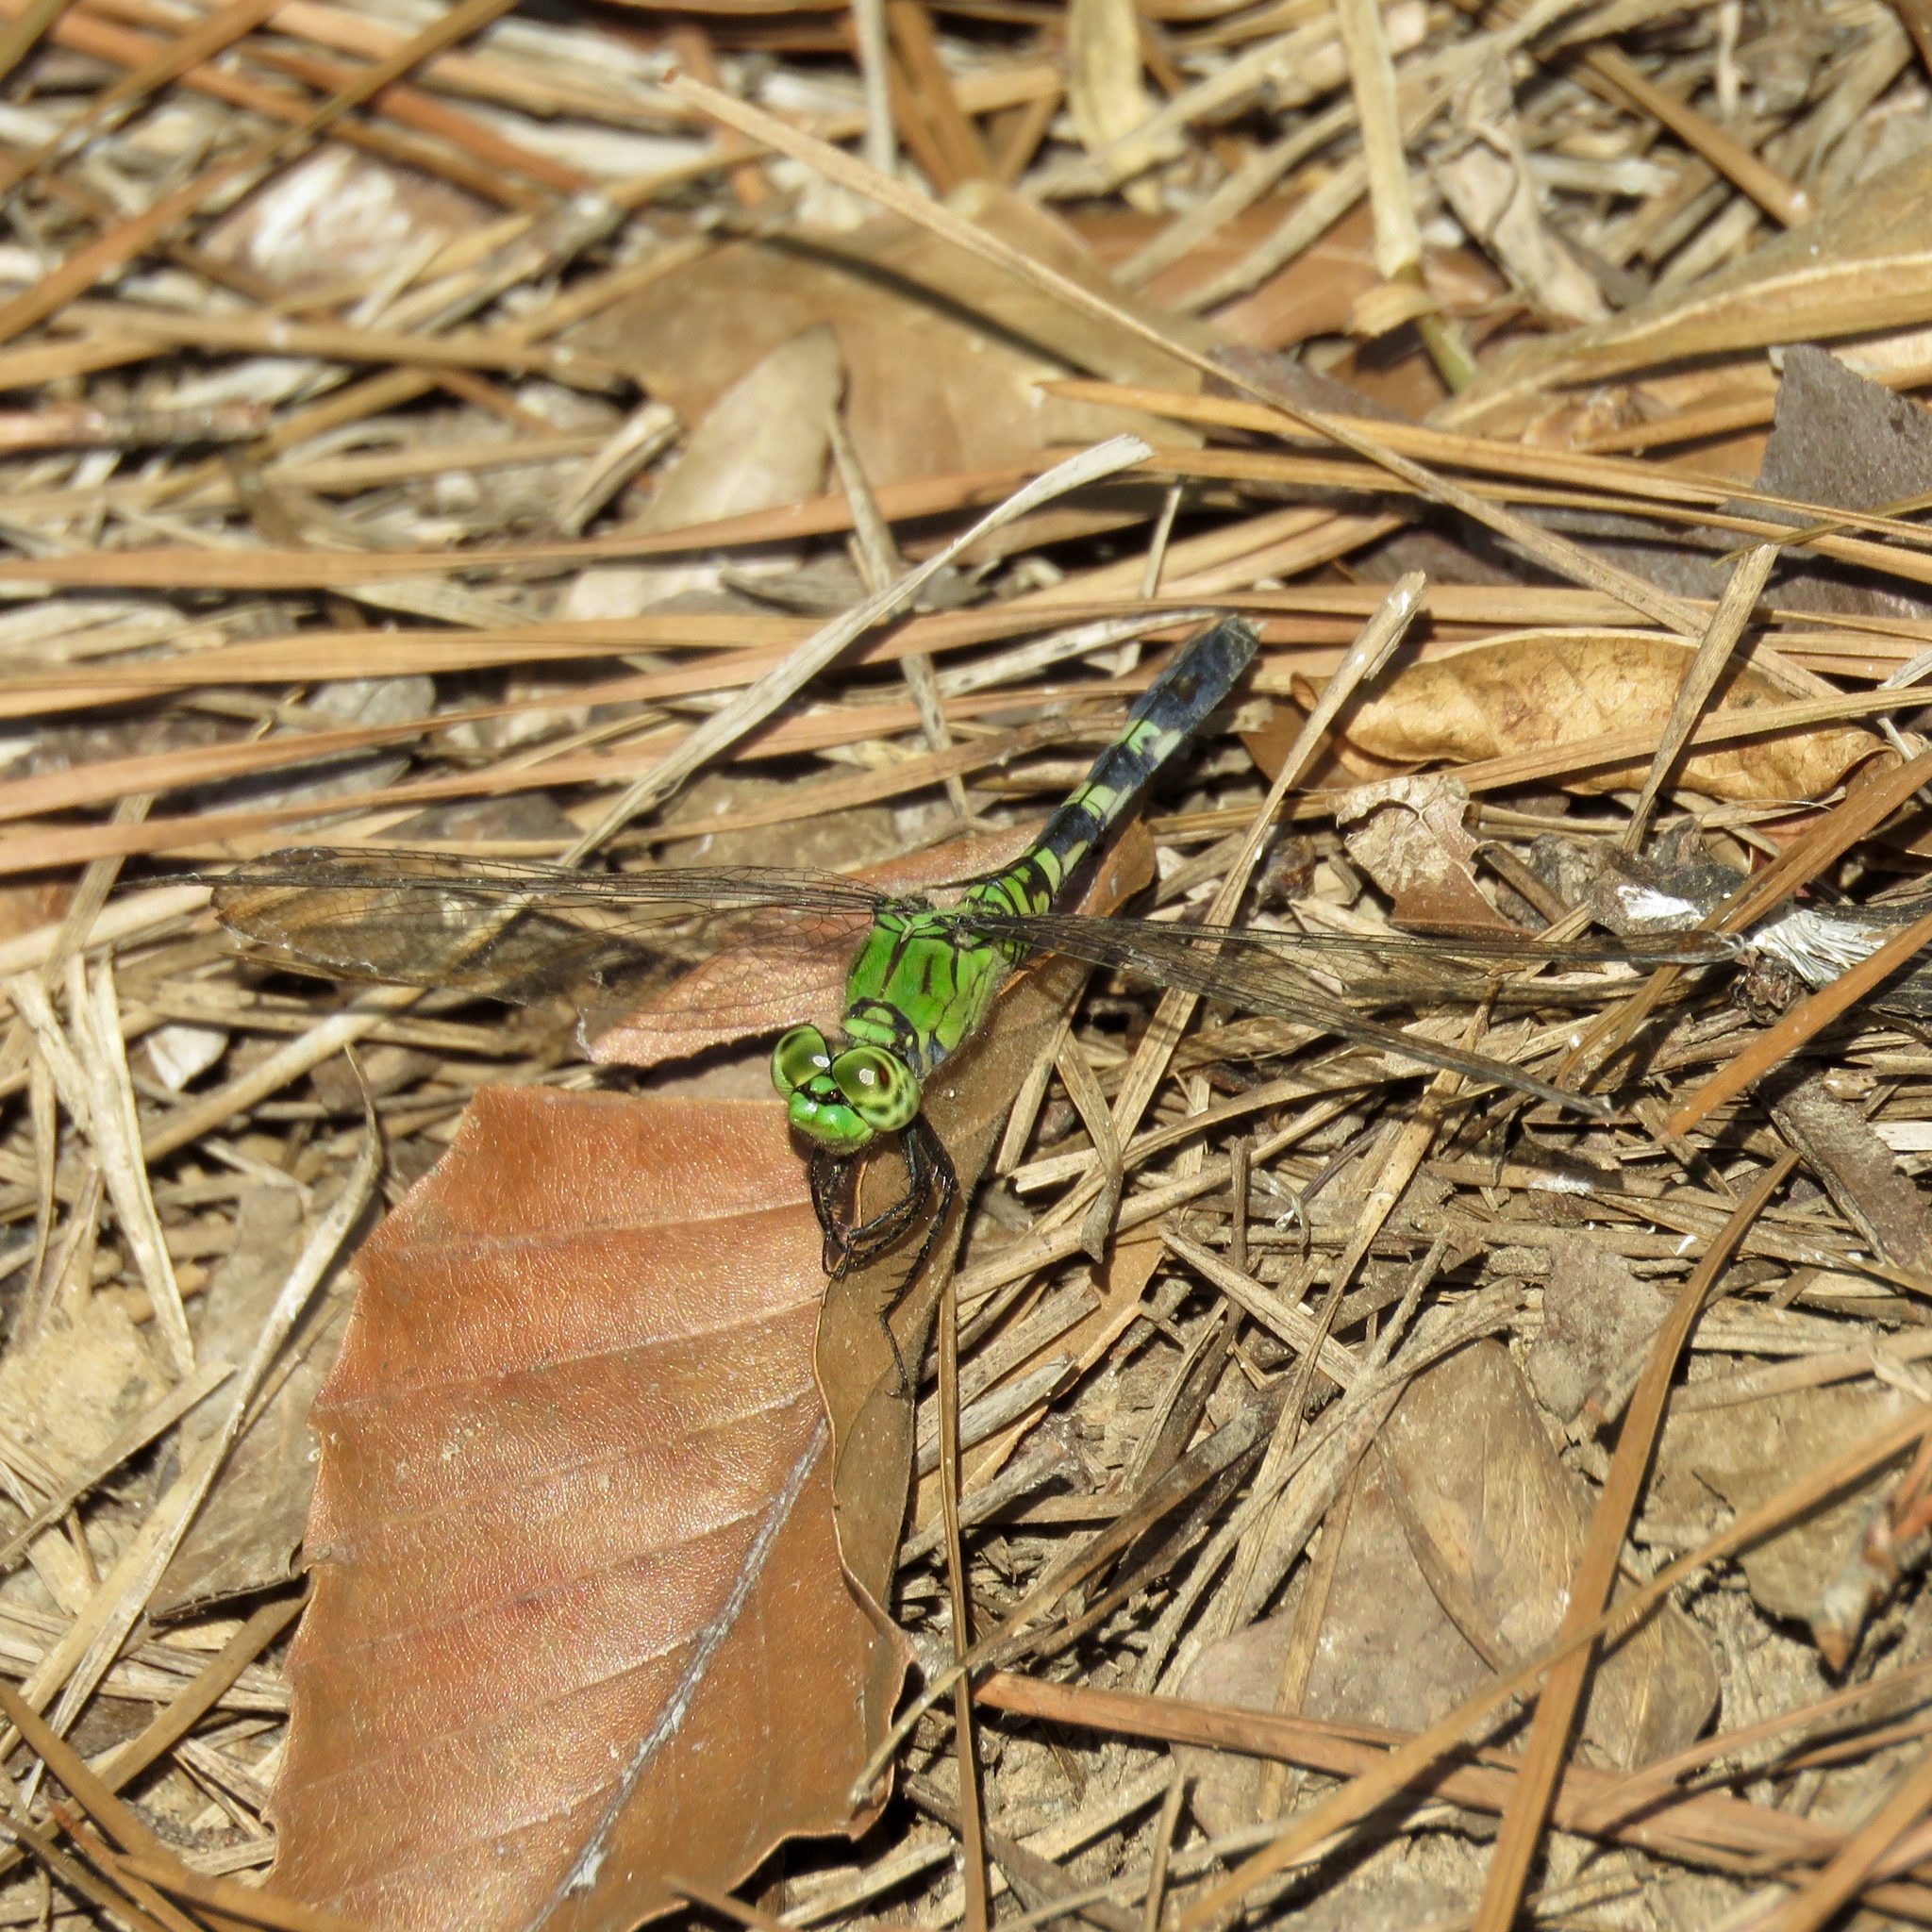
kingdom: Animalia
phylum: Arthropoda
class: Insecta
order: Odonata
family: Libellulidae
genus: Erythemis
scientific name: Erythemis simplicicollis
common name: Eastern pondhawk
